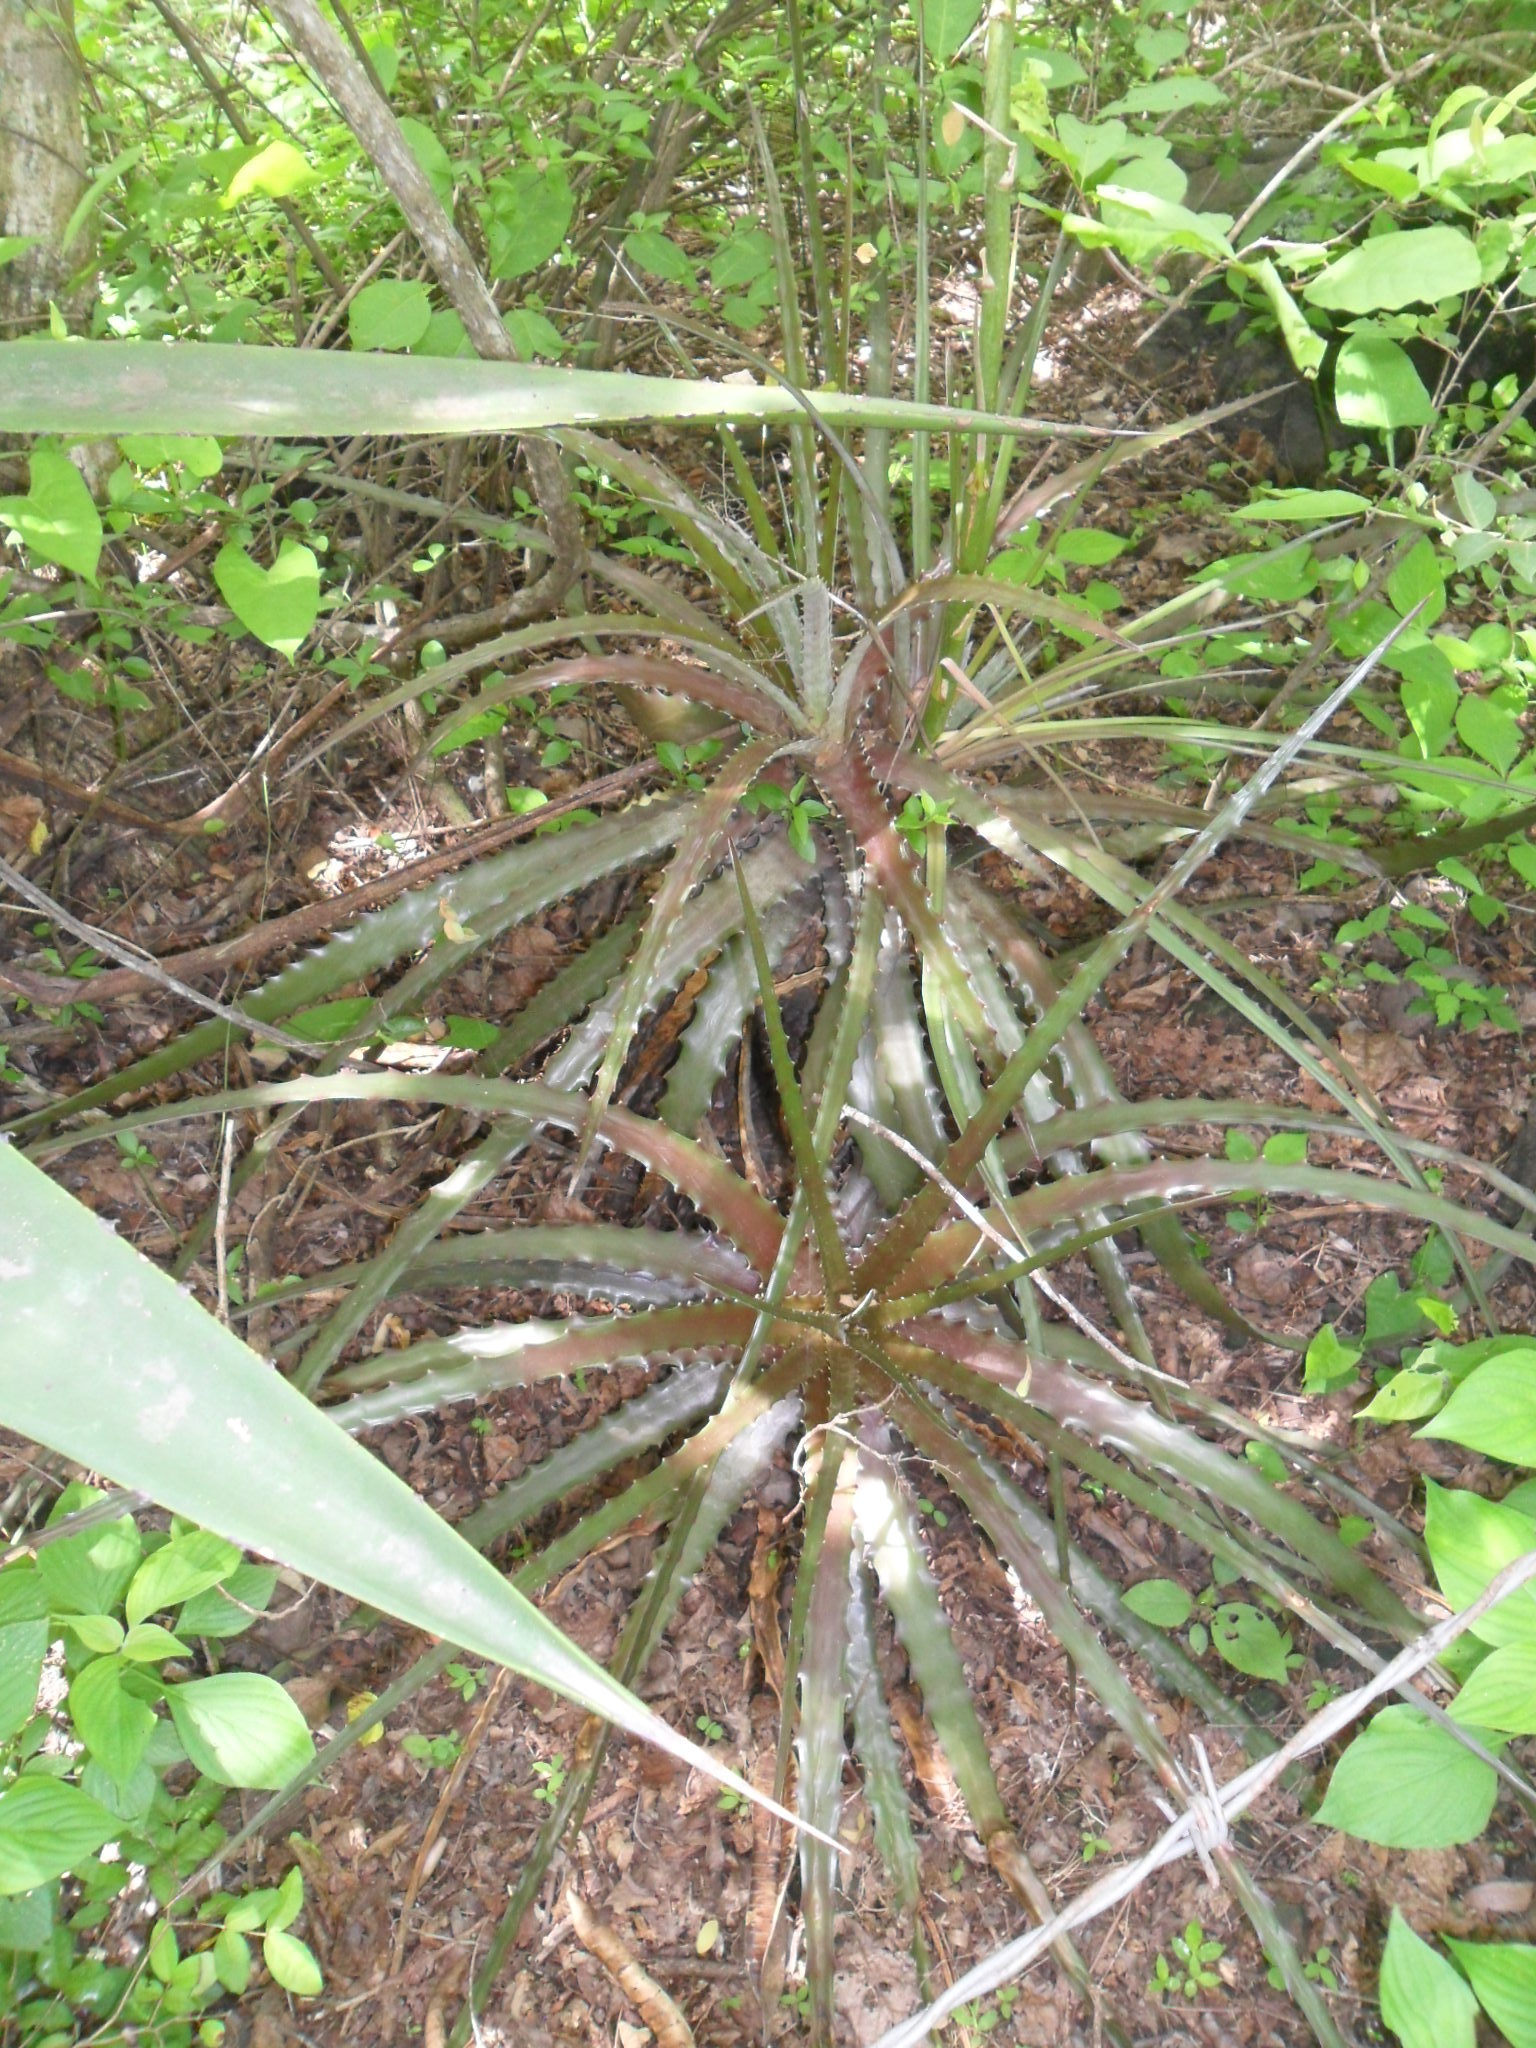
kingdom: Plantae
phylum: Tracheophyta
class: Liliopsida
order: Poales
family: Bromeliaceae
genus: Hechtia
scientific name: Hechtia stenopetala
